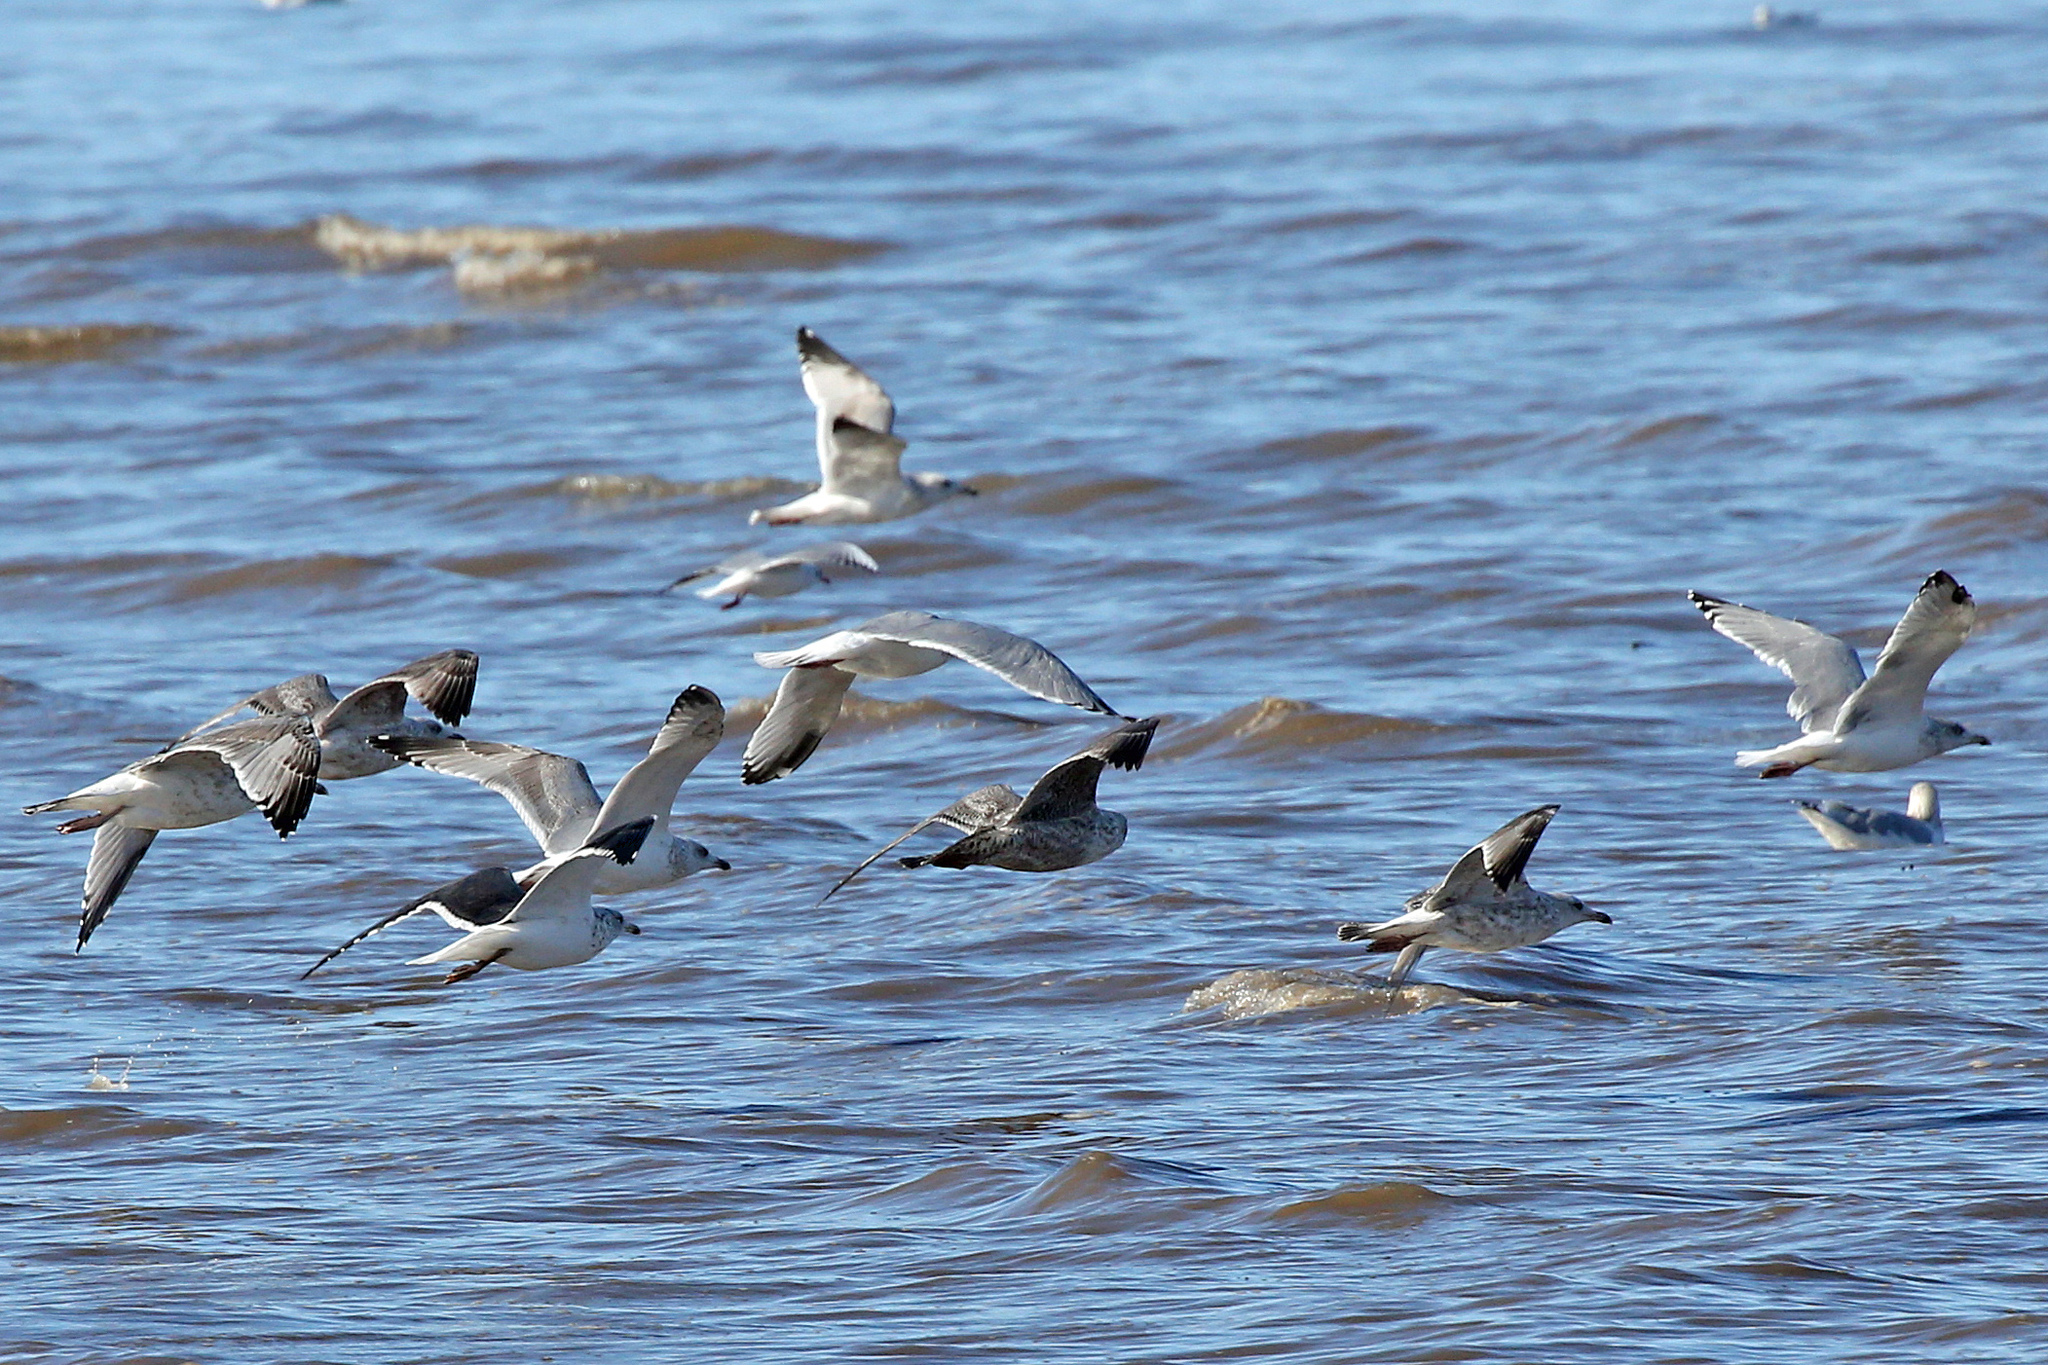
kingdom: Animalia
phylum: Chordata
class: Aves
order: Charadriiformes
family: Laridae
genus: Larus
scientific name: Larus argentatus
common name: Herring gull
